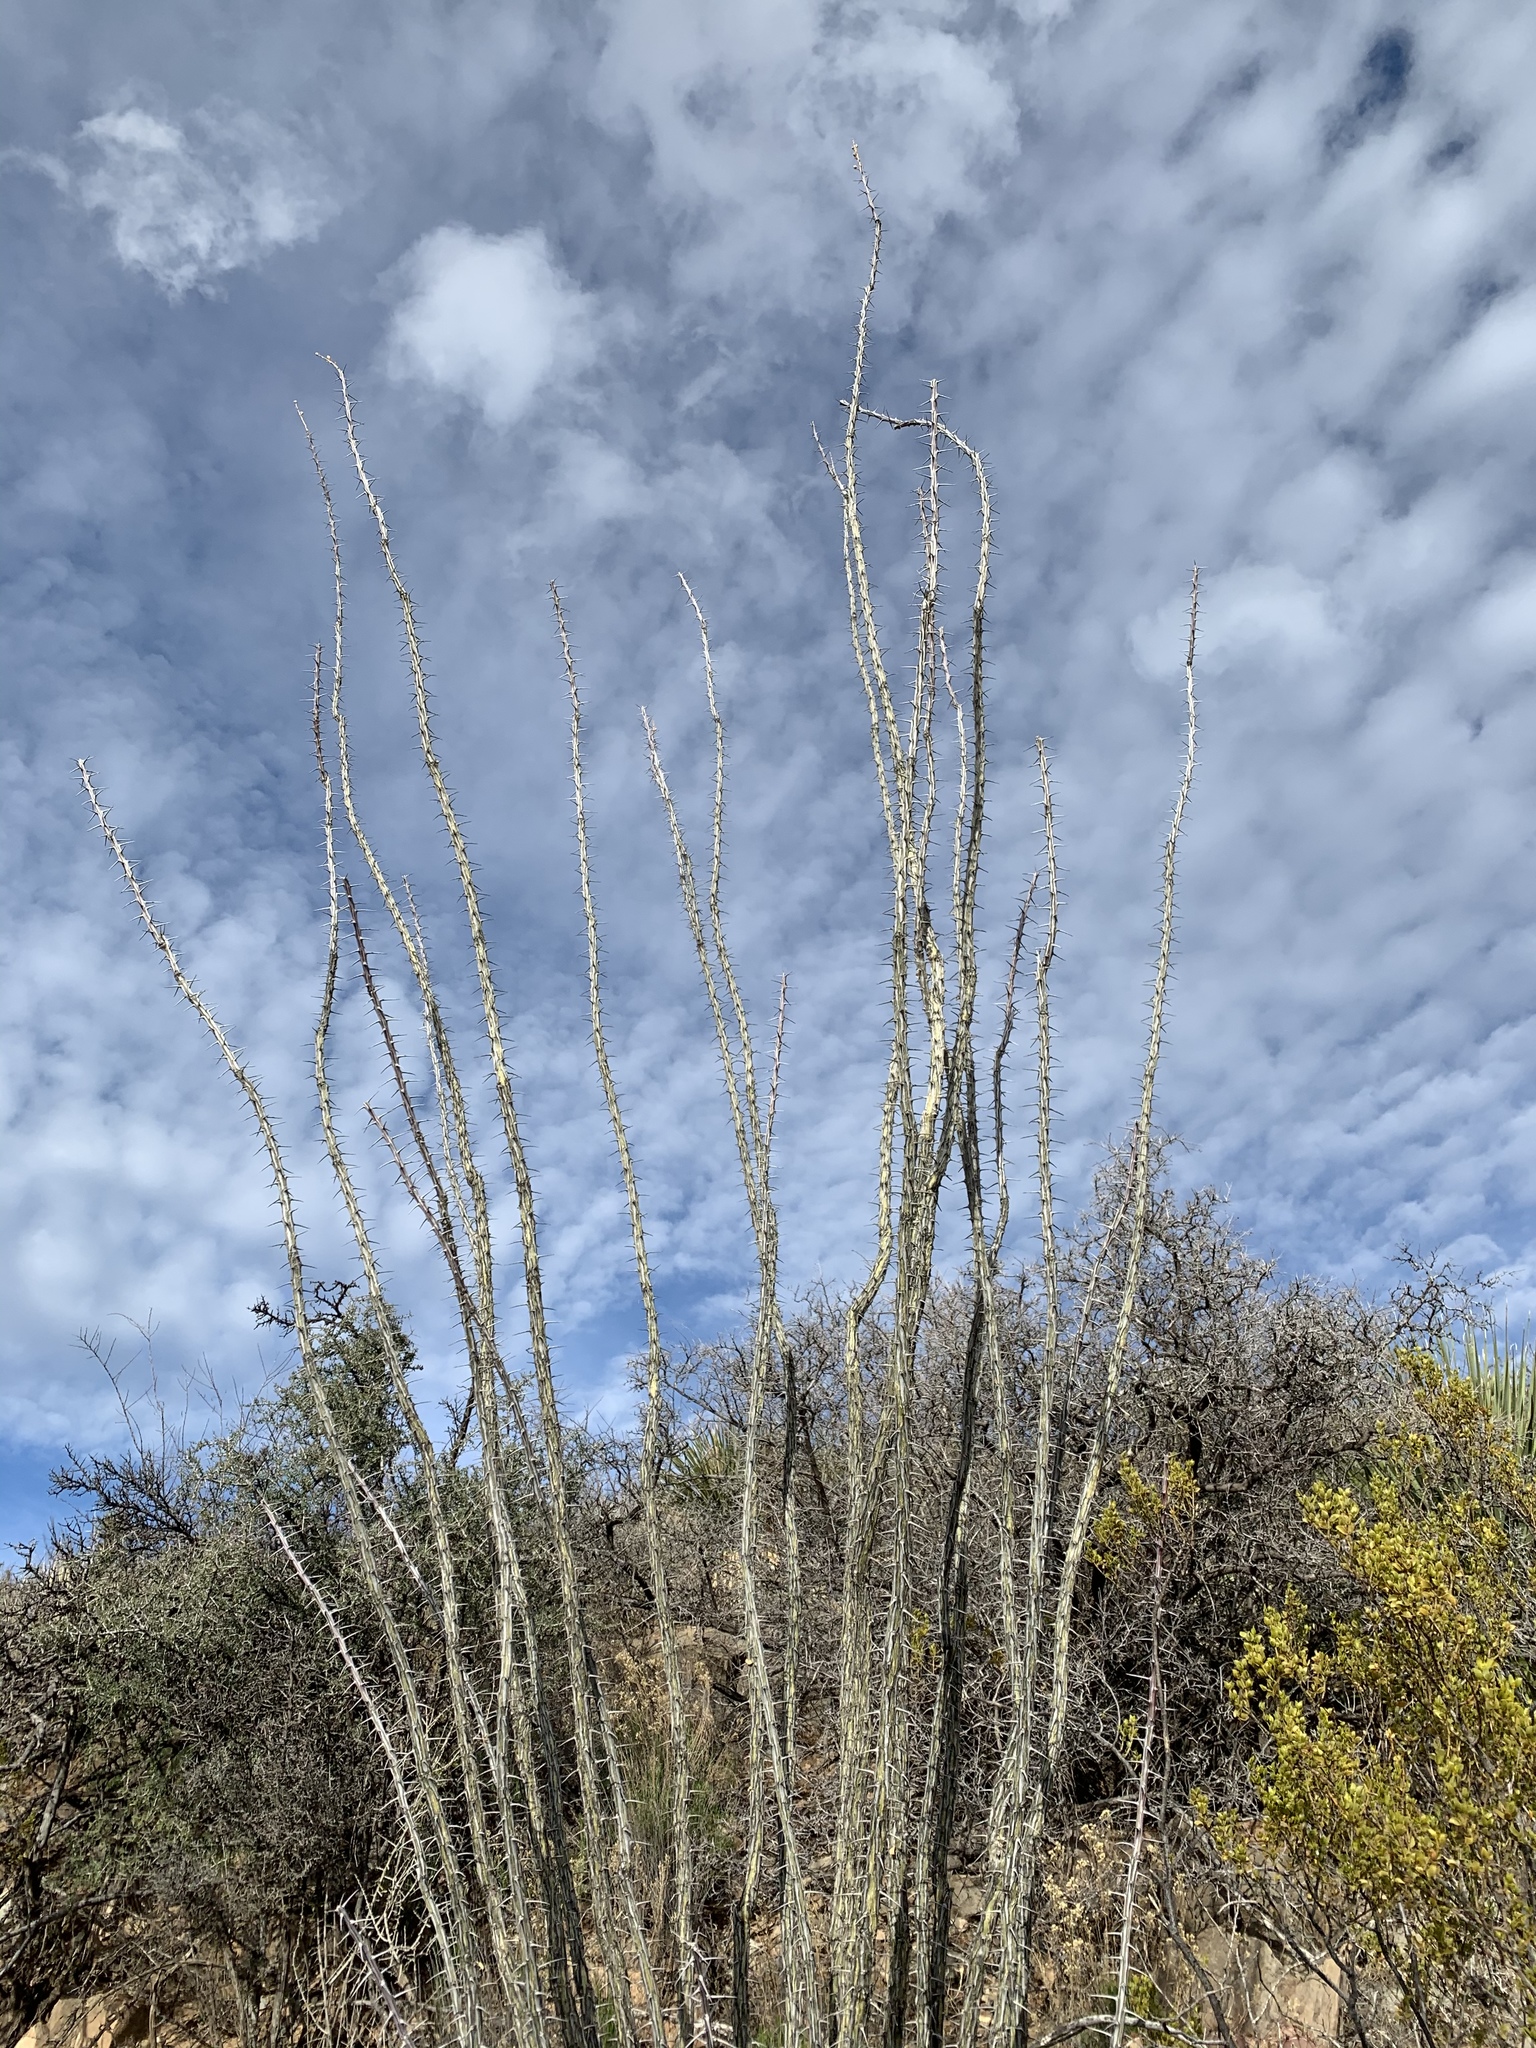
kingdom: Plantae
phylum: Tracheophyta
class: Magnoliopsida
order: Ericales
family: Fouquieriaceae
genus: Fouquieria
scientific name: Fouquieria splendens
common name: Vine-cactus
